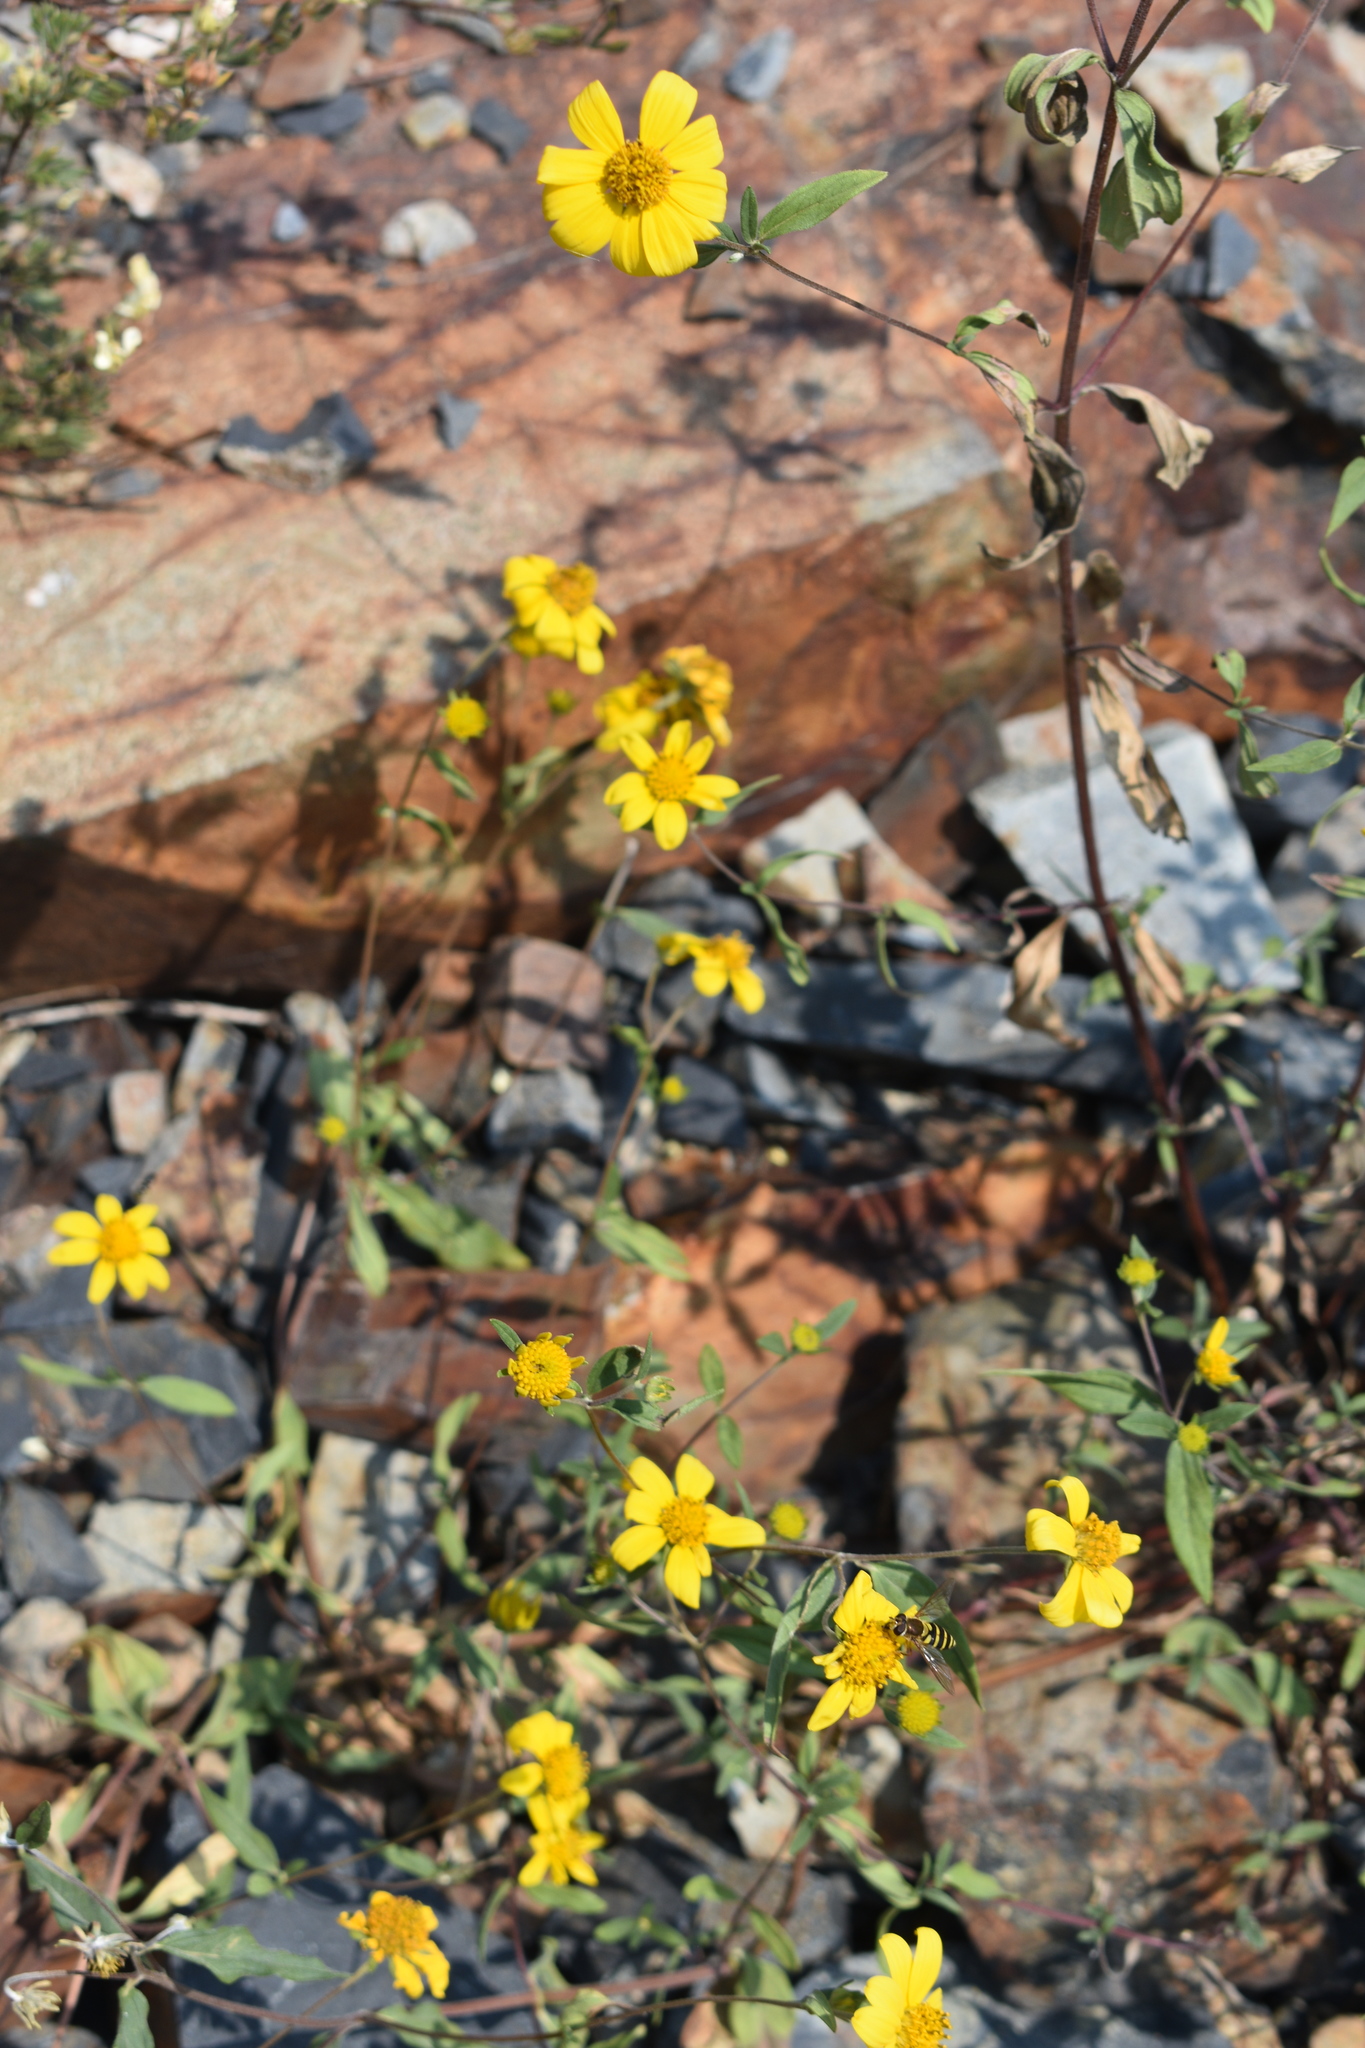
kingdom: Plantae
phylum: Tracheophyta
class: Magnoliopsida
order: Asterales
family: Asteraceae
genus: Heliomeris
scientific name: Heliomeris multiflora
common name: Showy goldeneye
